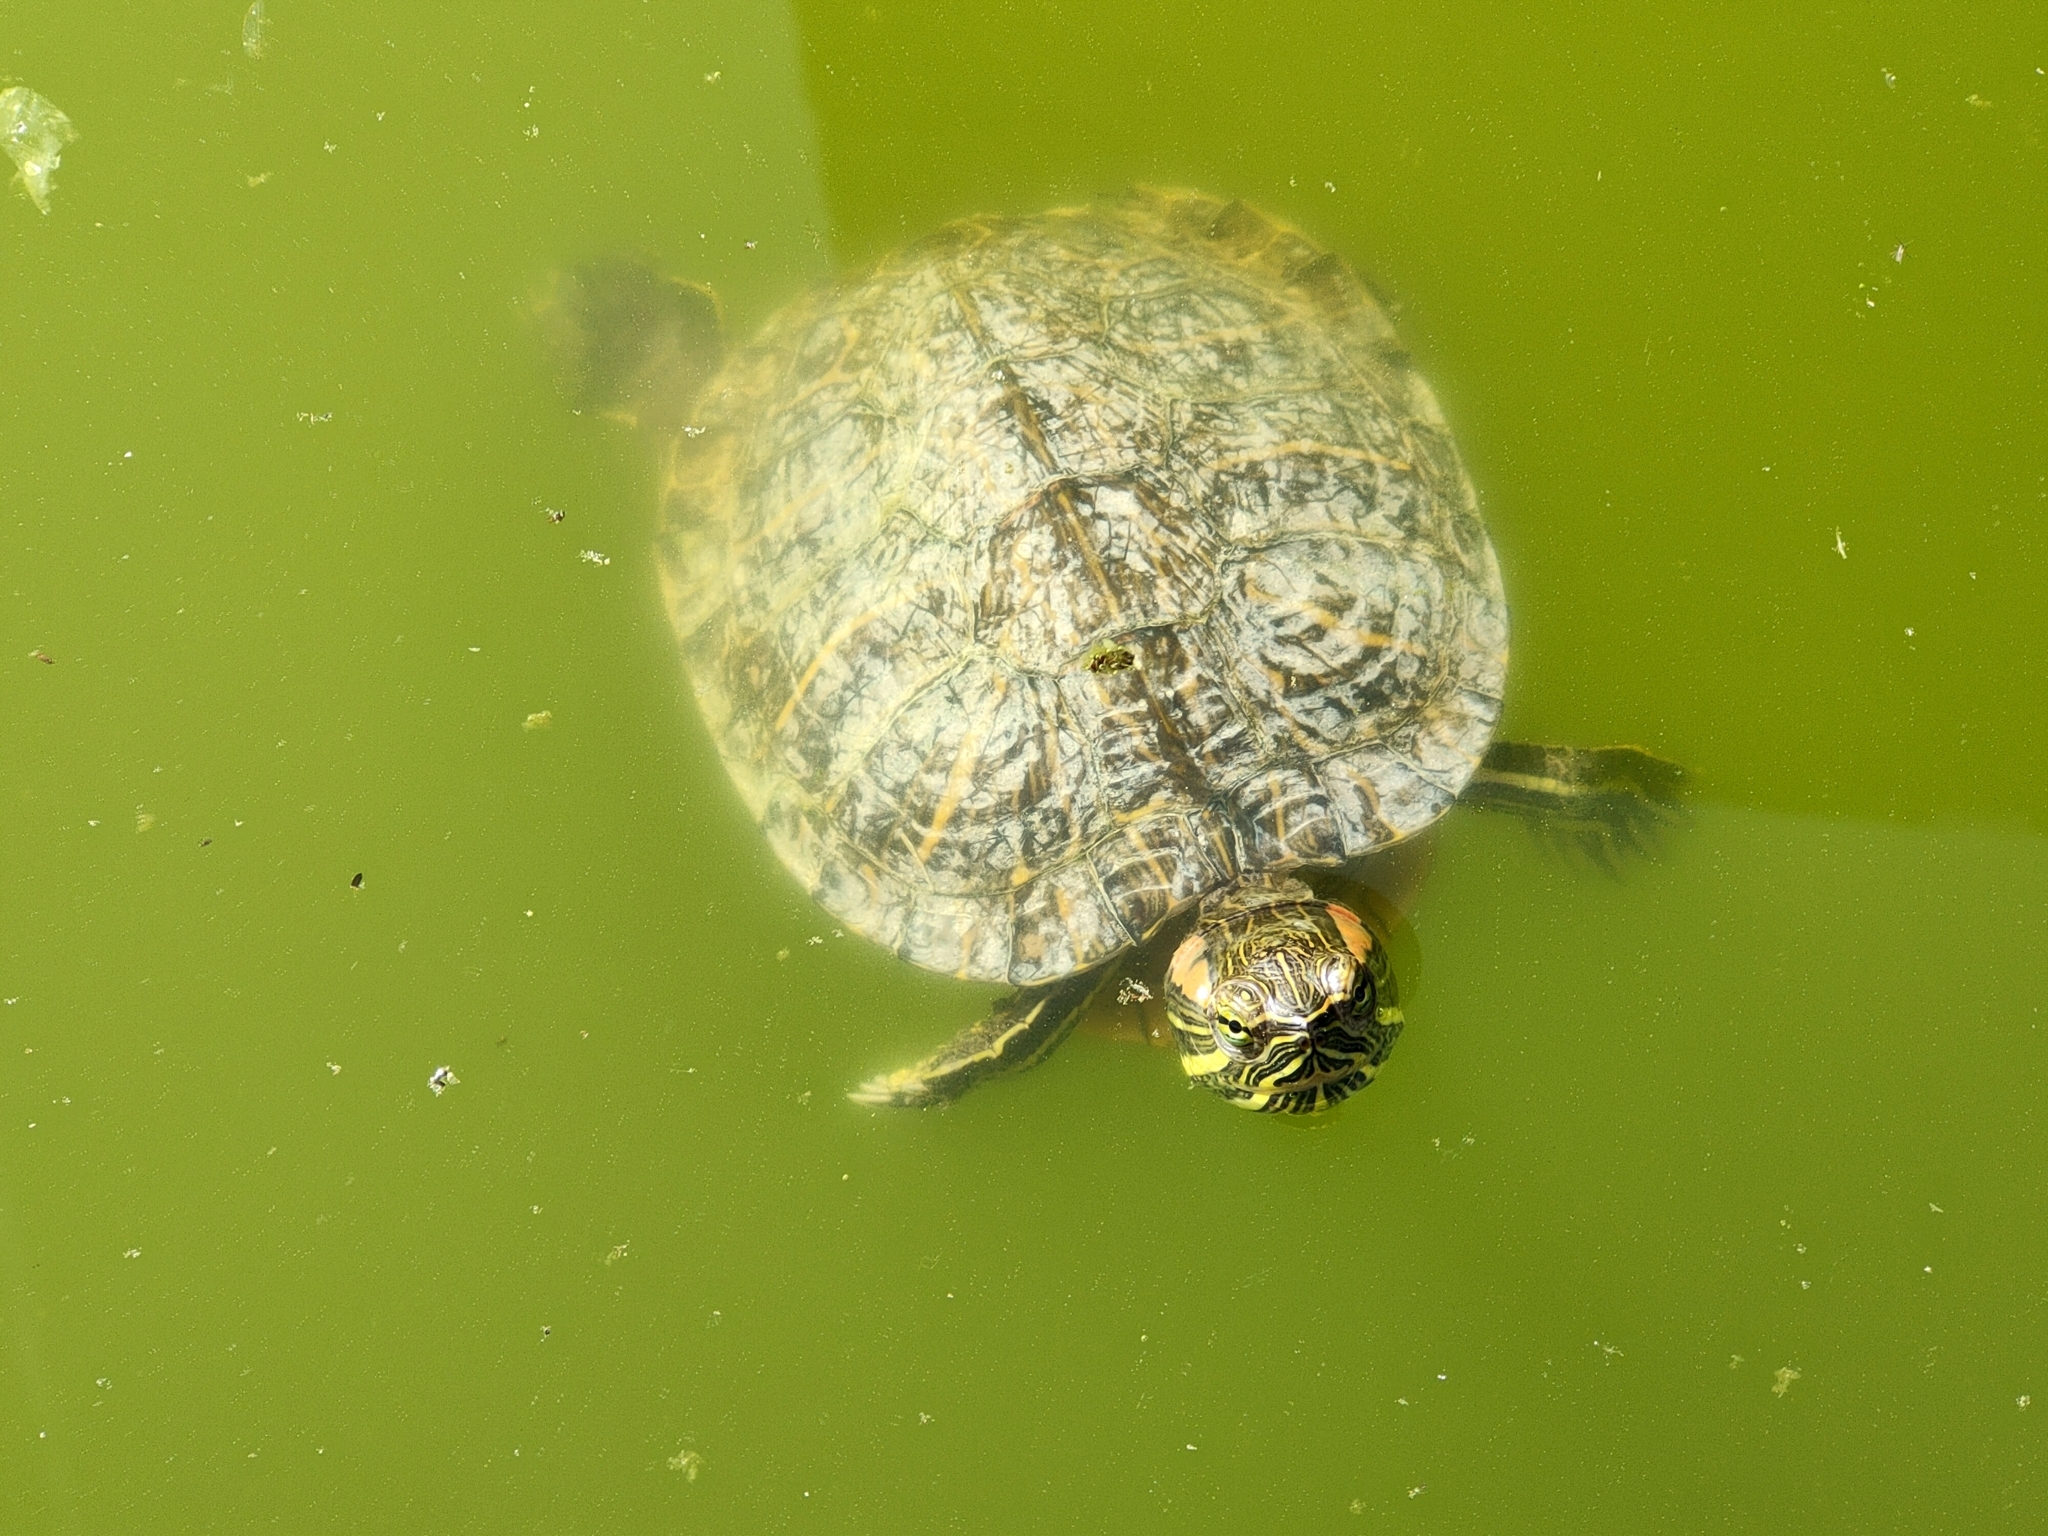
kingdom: Animalia
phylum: Chordata
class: Testudines
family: Emydidae
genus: Trachemys
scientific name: Trachemys scripta
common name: Slider
